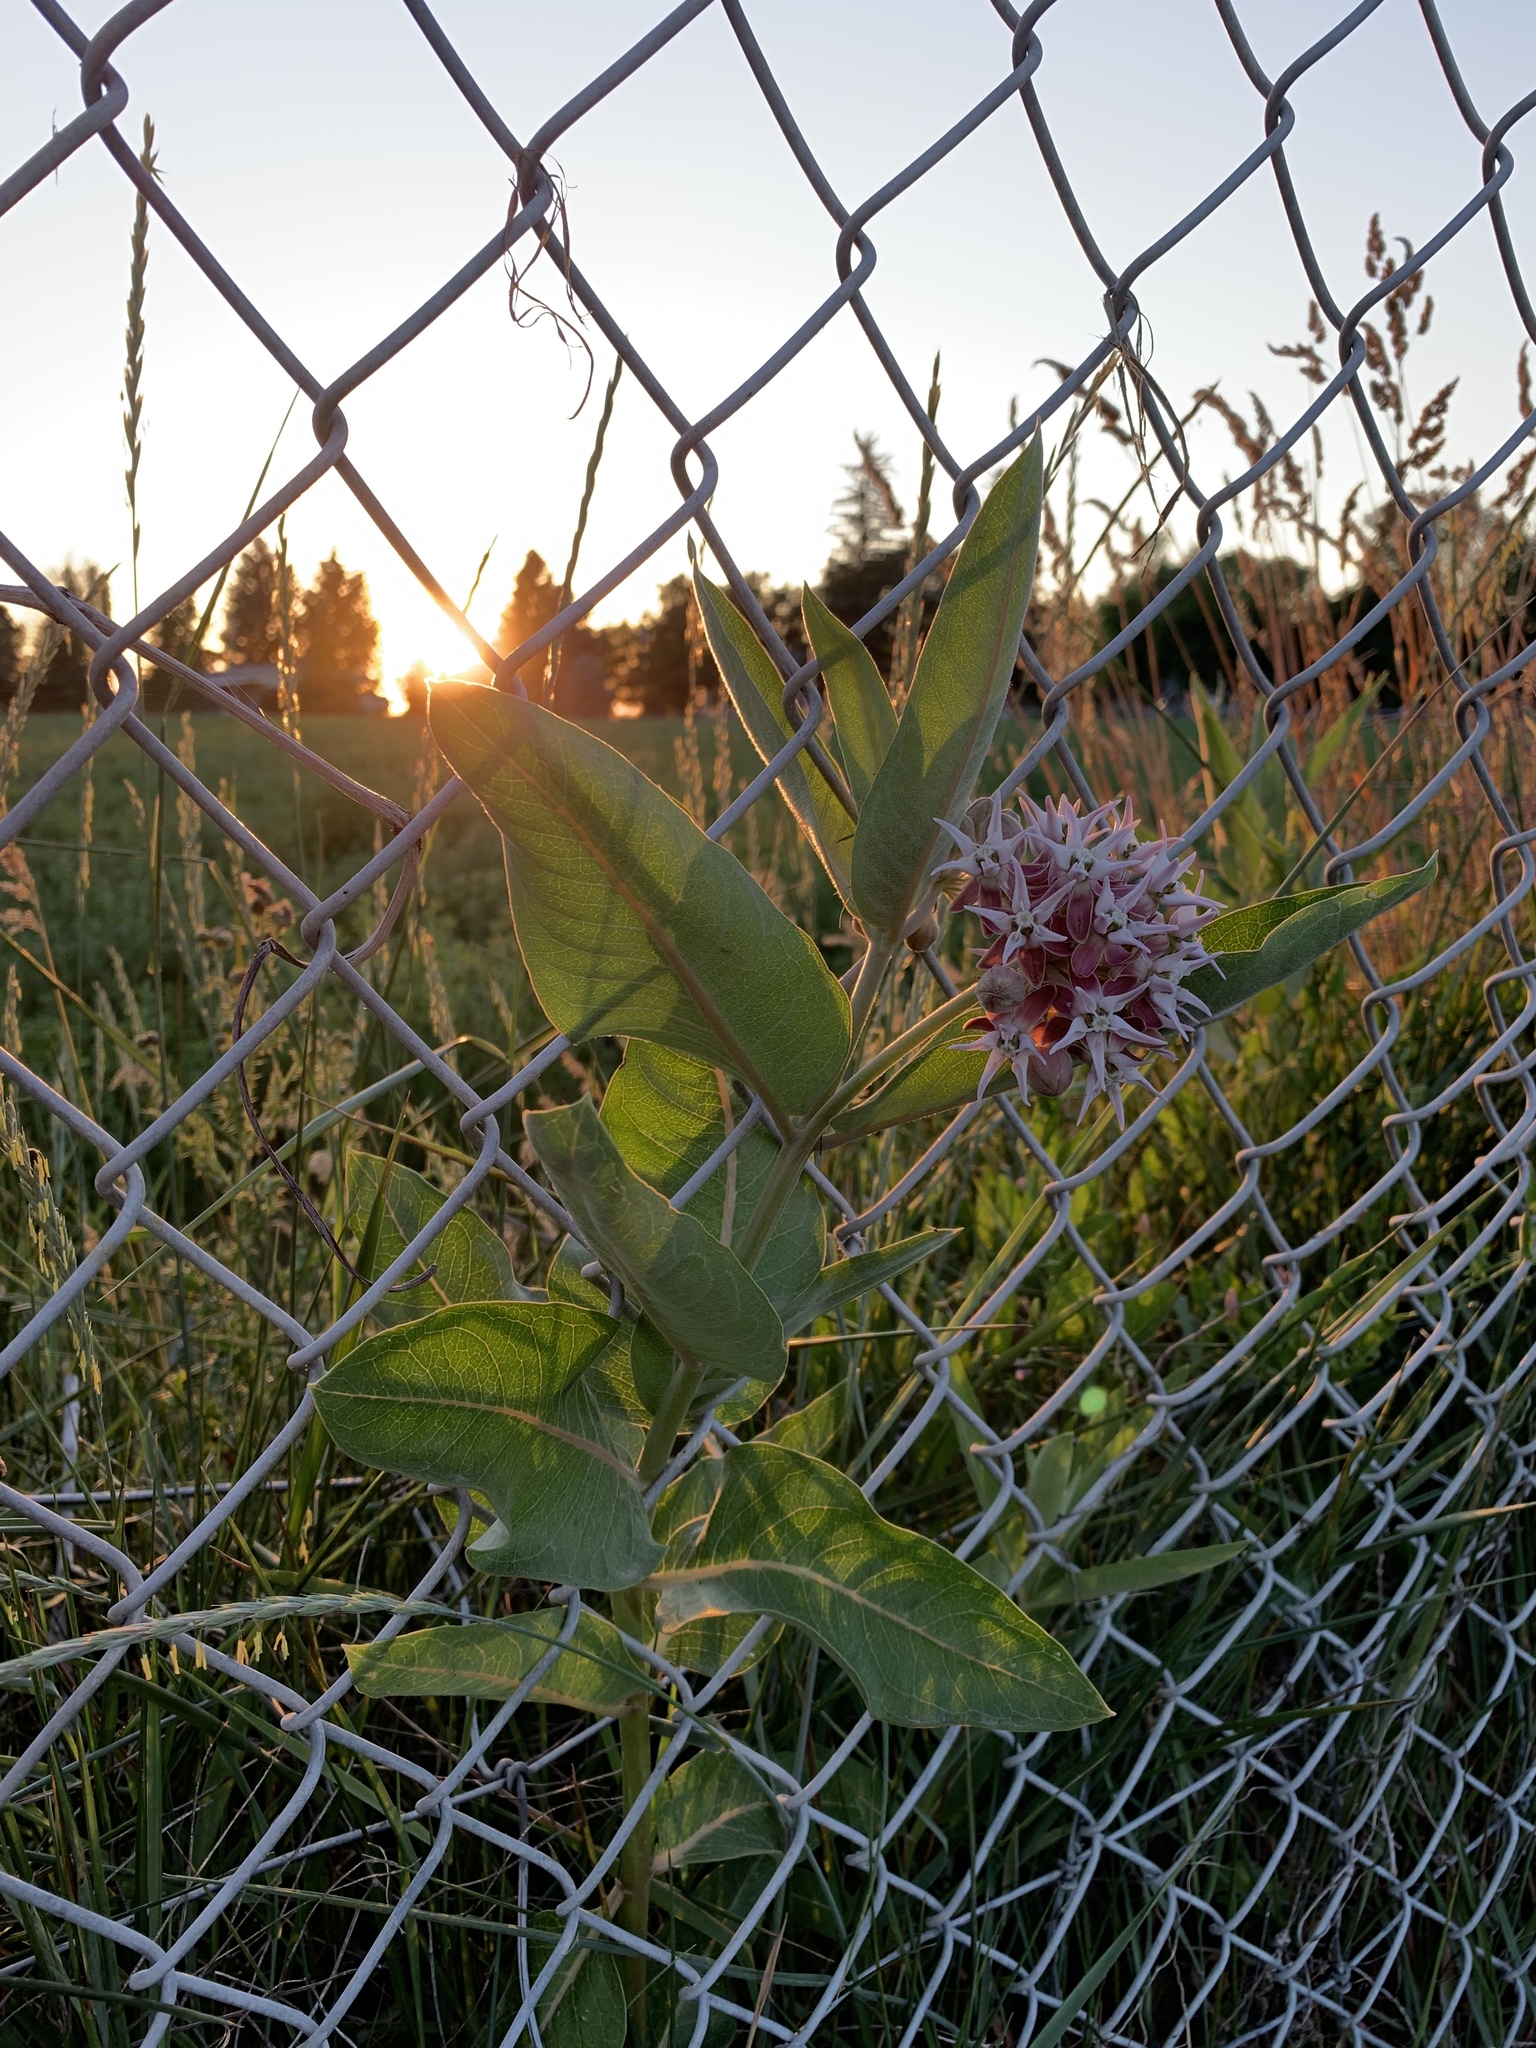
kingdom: Plantae
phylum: Tracheophyta
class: Magnoliopsida
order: Gentianales
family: Apocynaceae
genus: Asclepias
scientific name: Asclepias speciosa
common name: Showy milkweed
